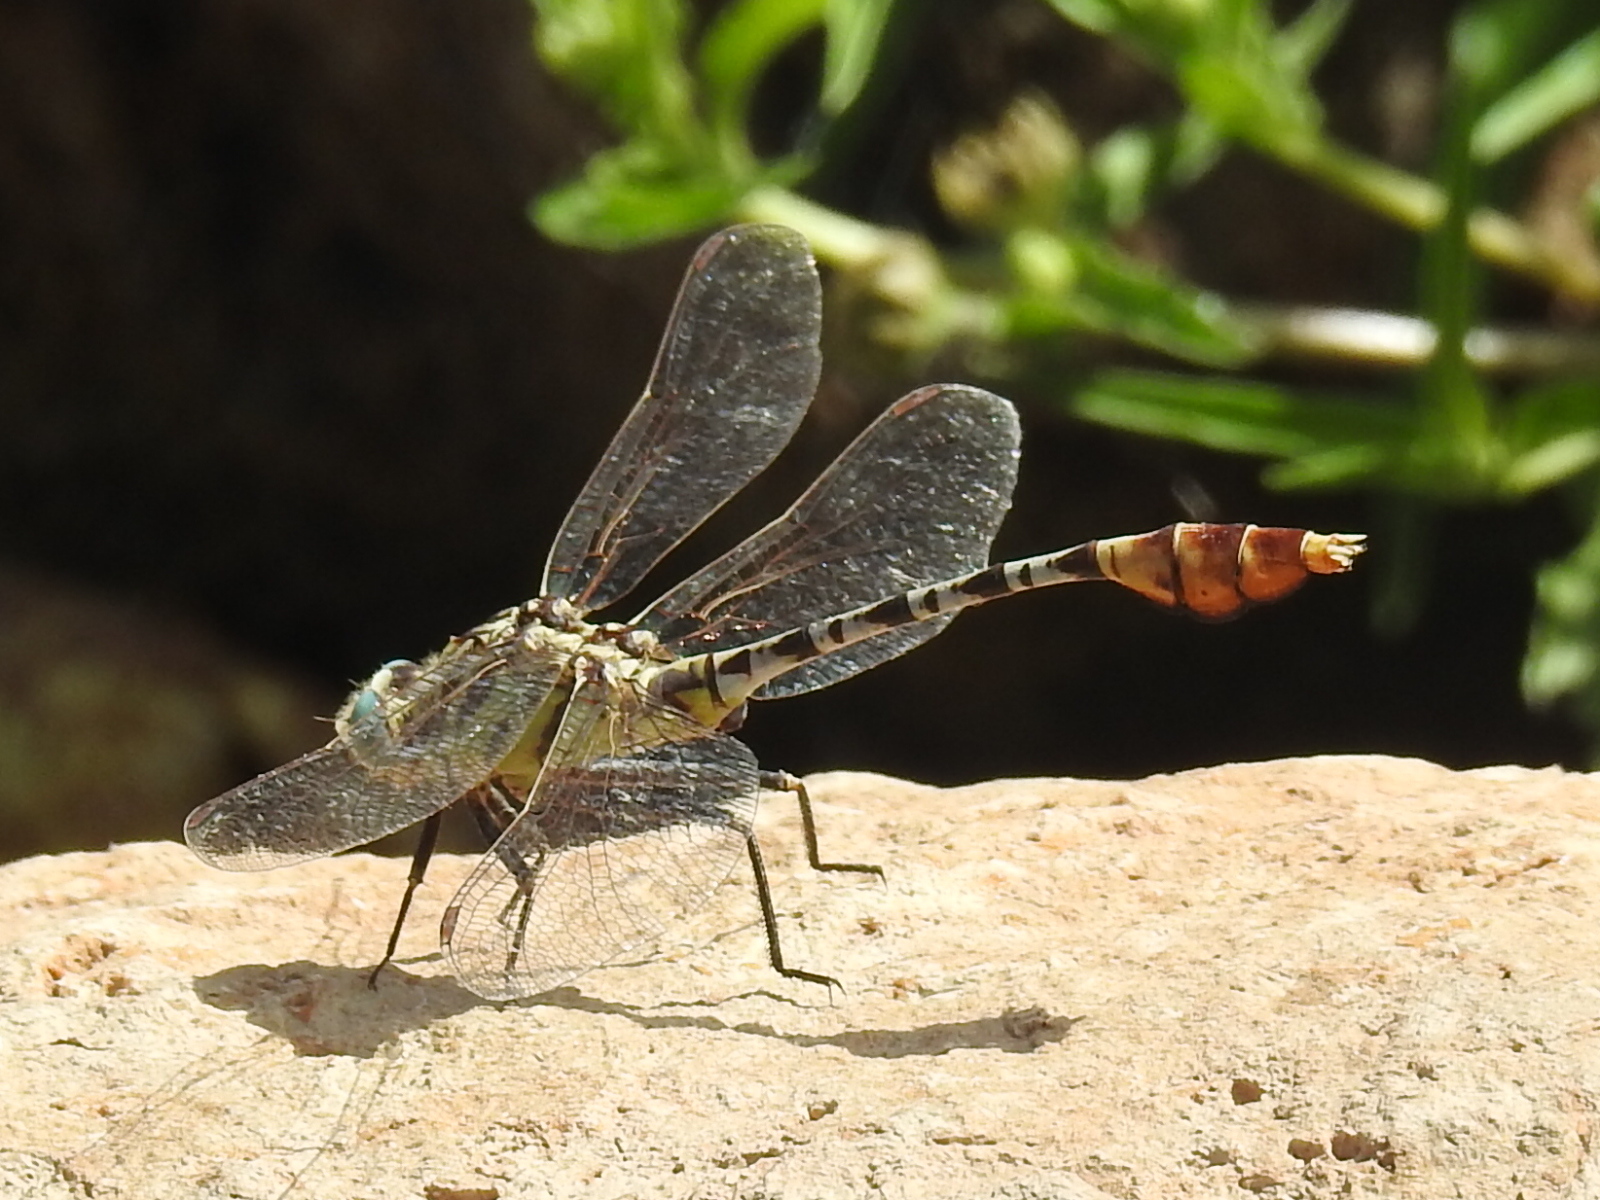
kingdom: Animalia
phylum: Arthropoda
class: Insecta
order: Odonata
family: Gomphidae
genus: Dromogomphus
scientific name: Dromogomphus spoliatus
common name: Flag-tailed spinyleg
